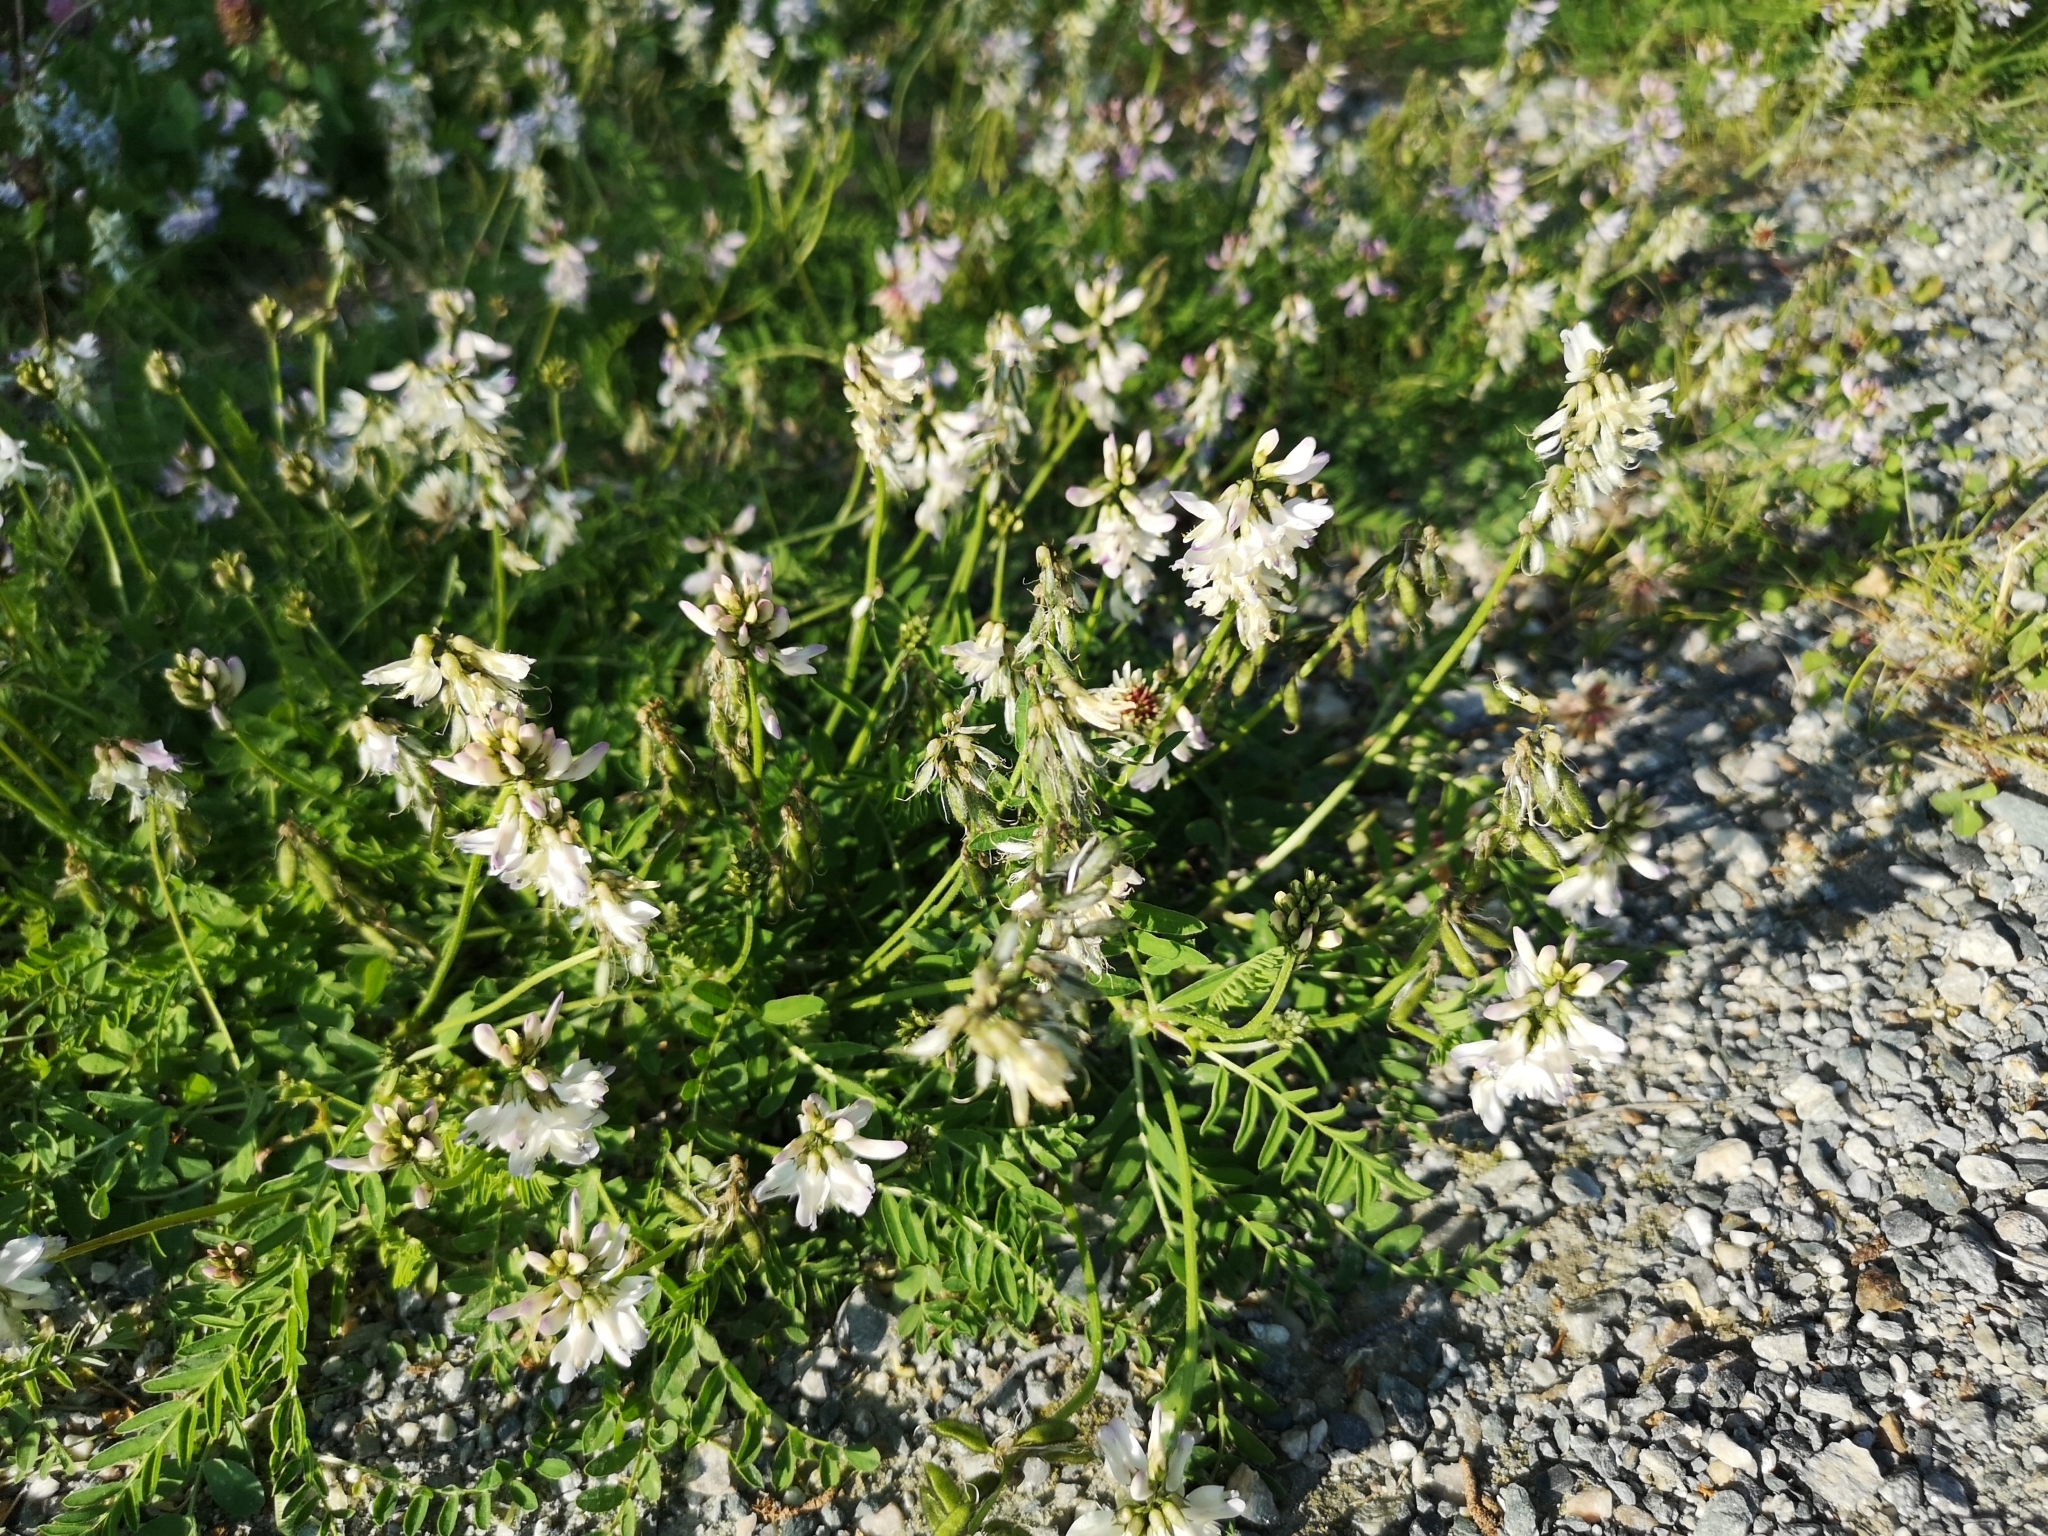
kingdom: Plantae
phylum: Tracheophyta
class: Magnoliopsida
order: Fabales
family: Fabaceae
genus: Astragalus
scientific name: Astragalus alpinus
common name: Alpine milk-vetch
